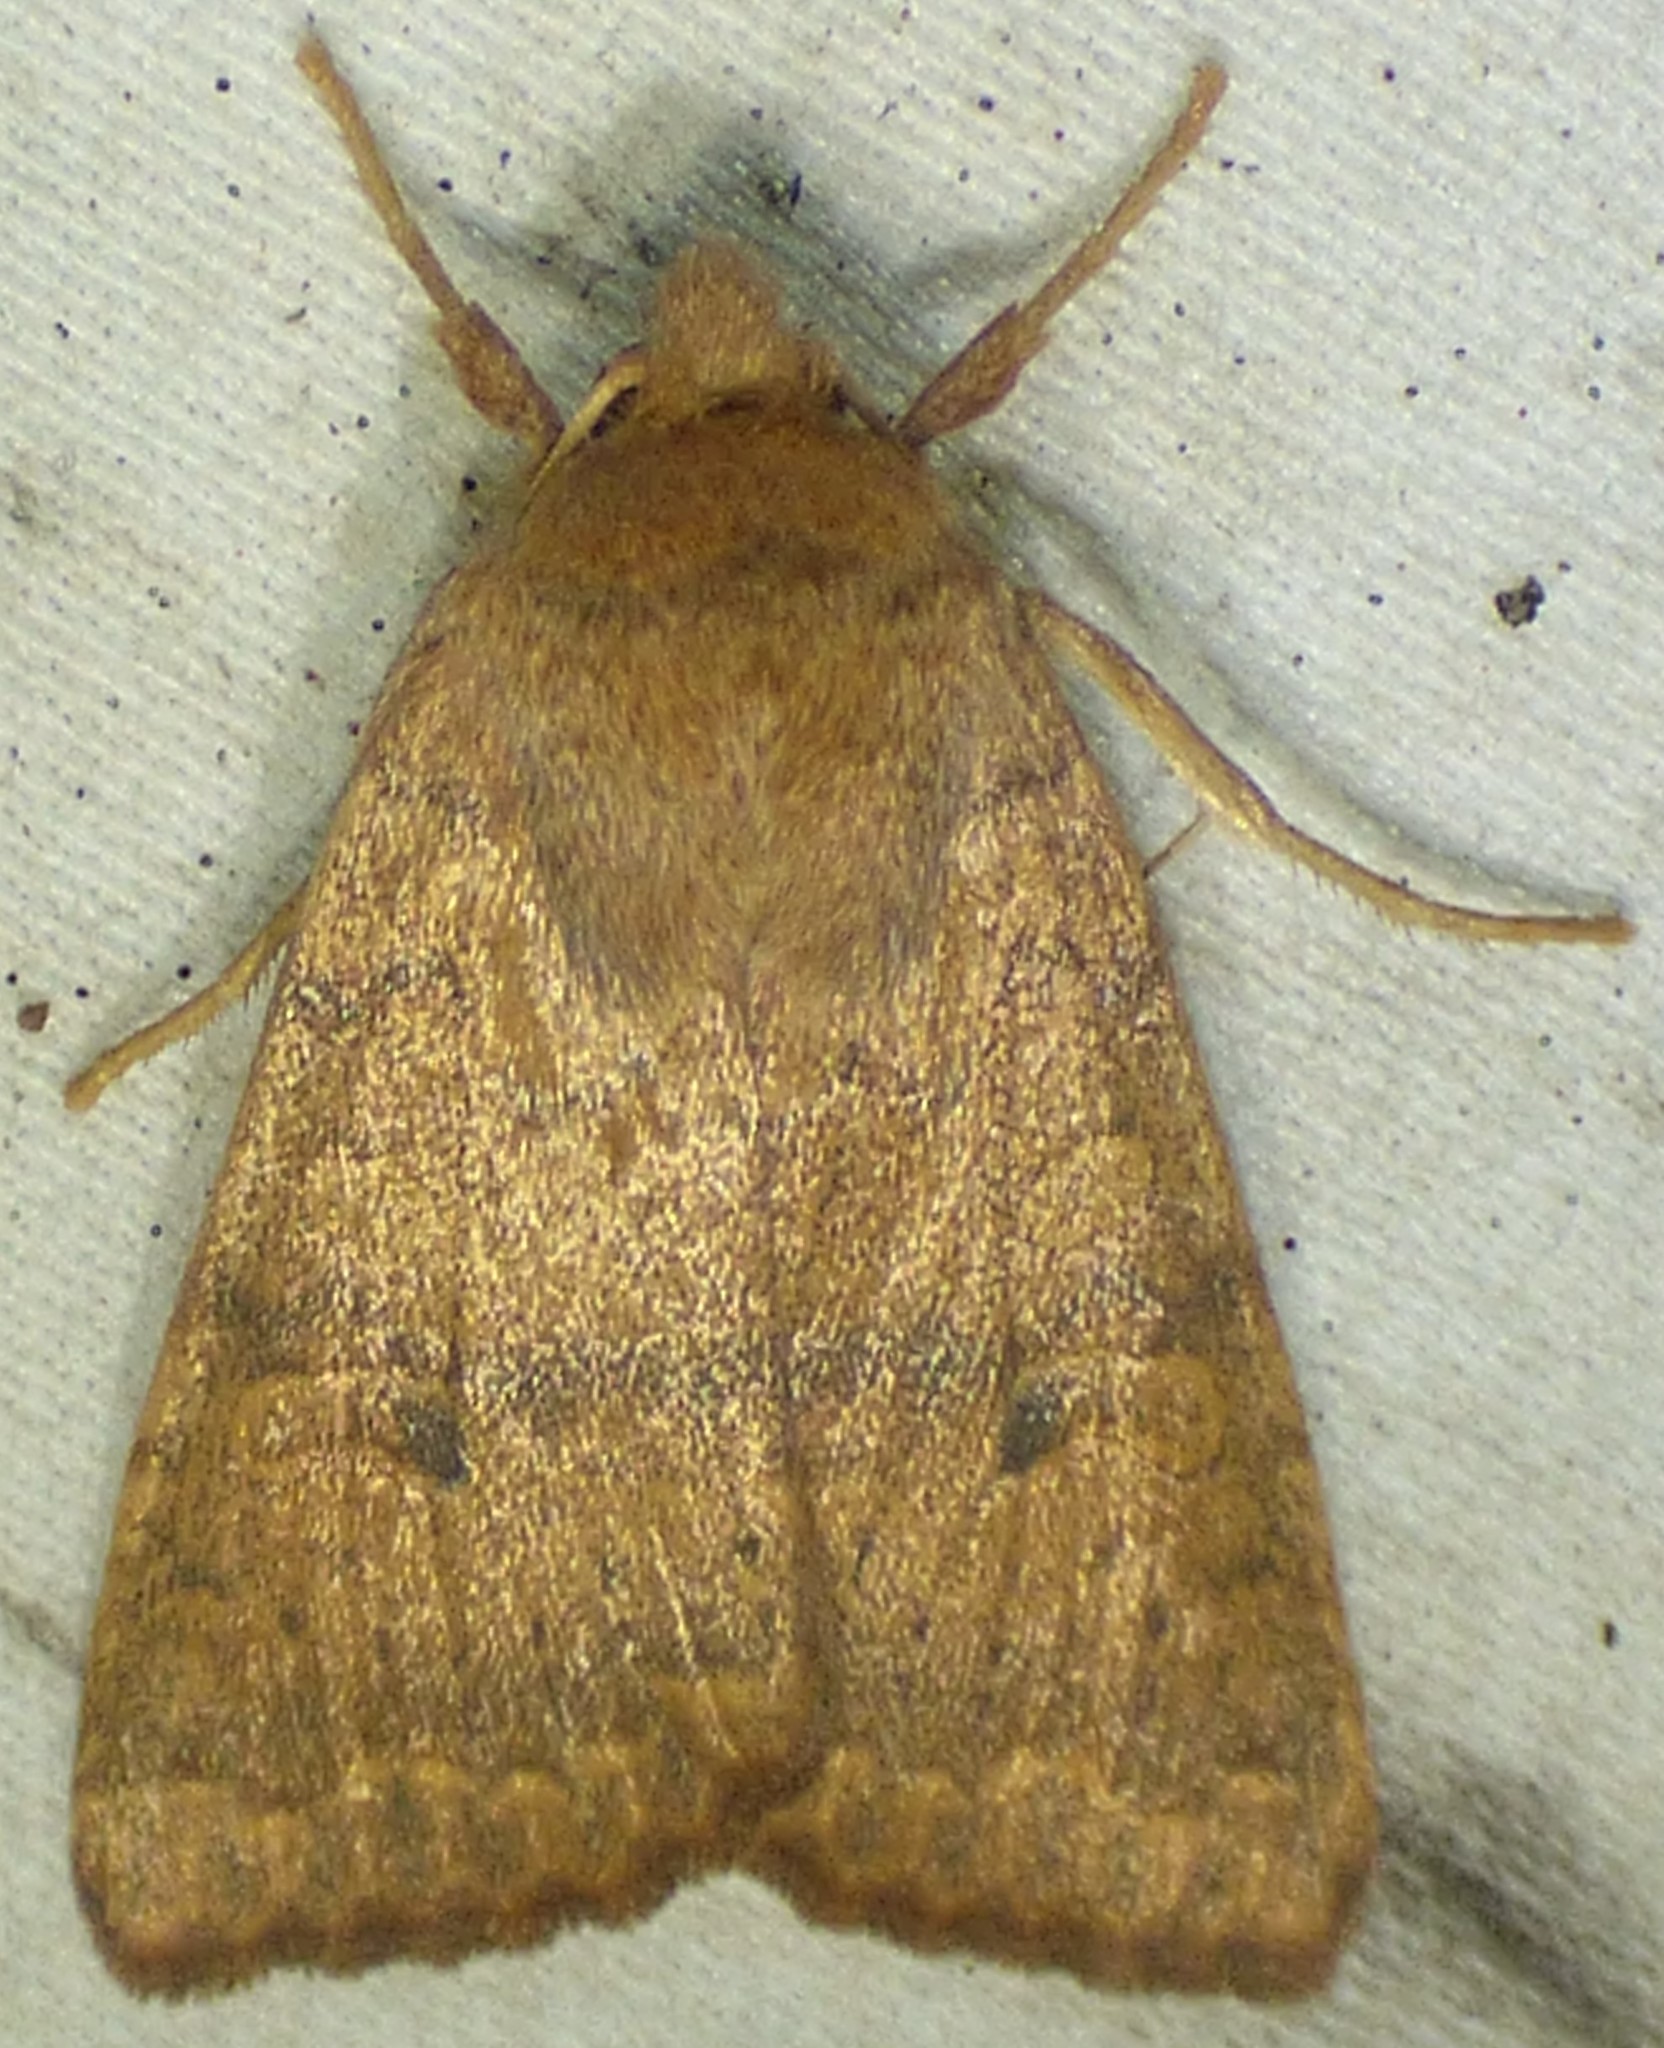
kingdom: Animalia
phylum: Arthropoda
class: Insecta
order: Lepidoptera
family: Noctuidae
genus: Agrochola
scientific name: Agrochola bicolorago
